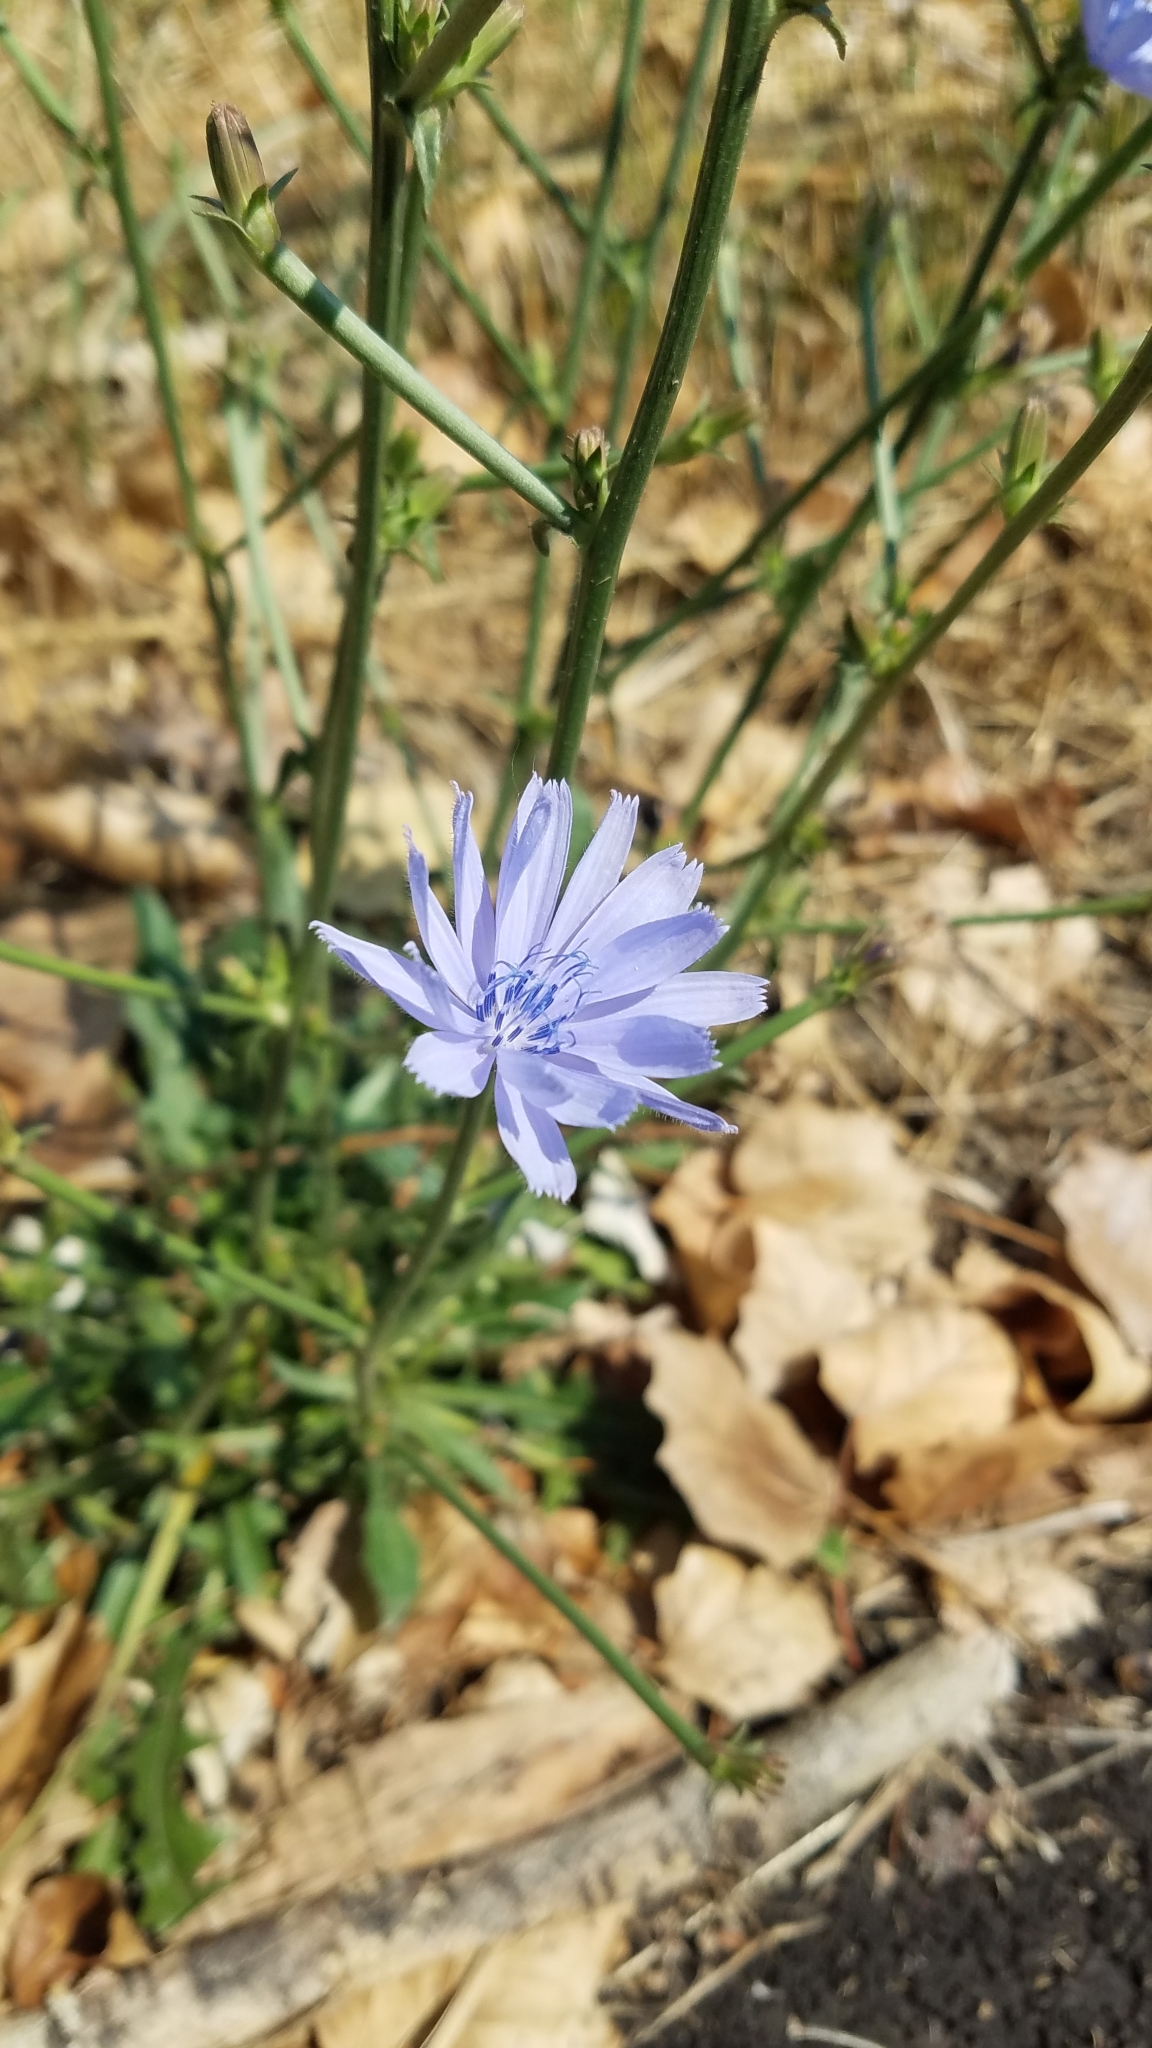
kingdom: Plantae
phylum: Tracheophyta
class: Magnoliopsida
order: Asterales
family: Asteraceae
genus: Cichorium
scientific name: Cichorium intybus
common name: Chicory
